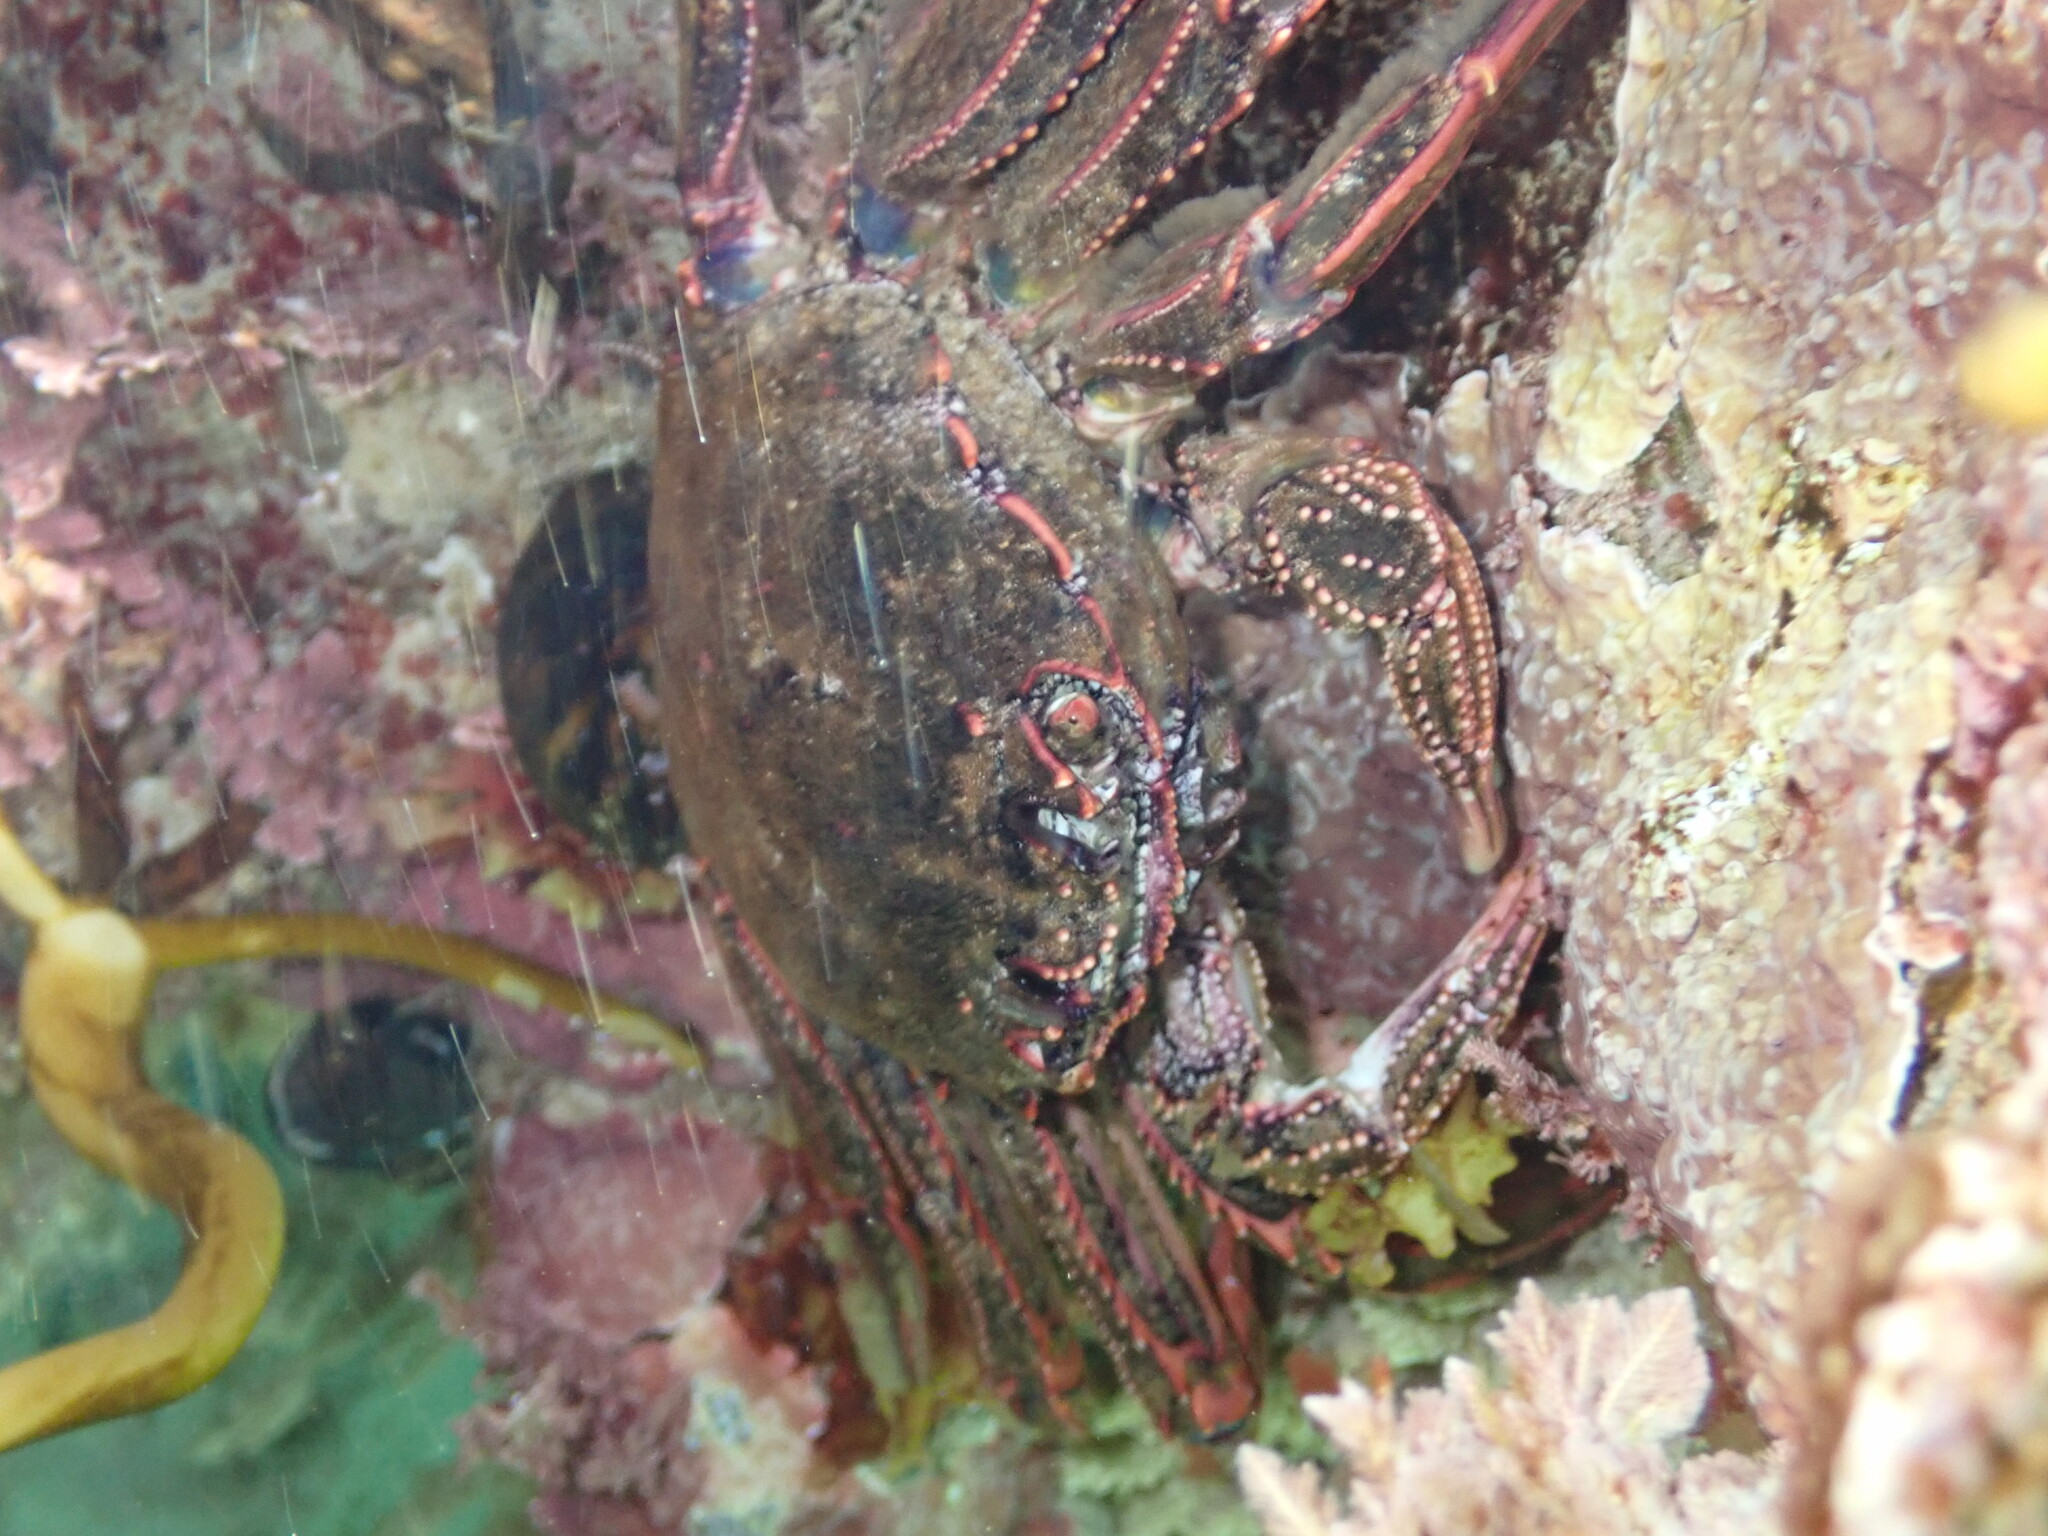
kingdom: Animalia
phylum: Arthropoda
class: Malacostraca
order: Decapoda
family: Plagusiidae
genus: Guinusia
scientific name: Guinusia chabrus
